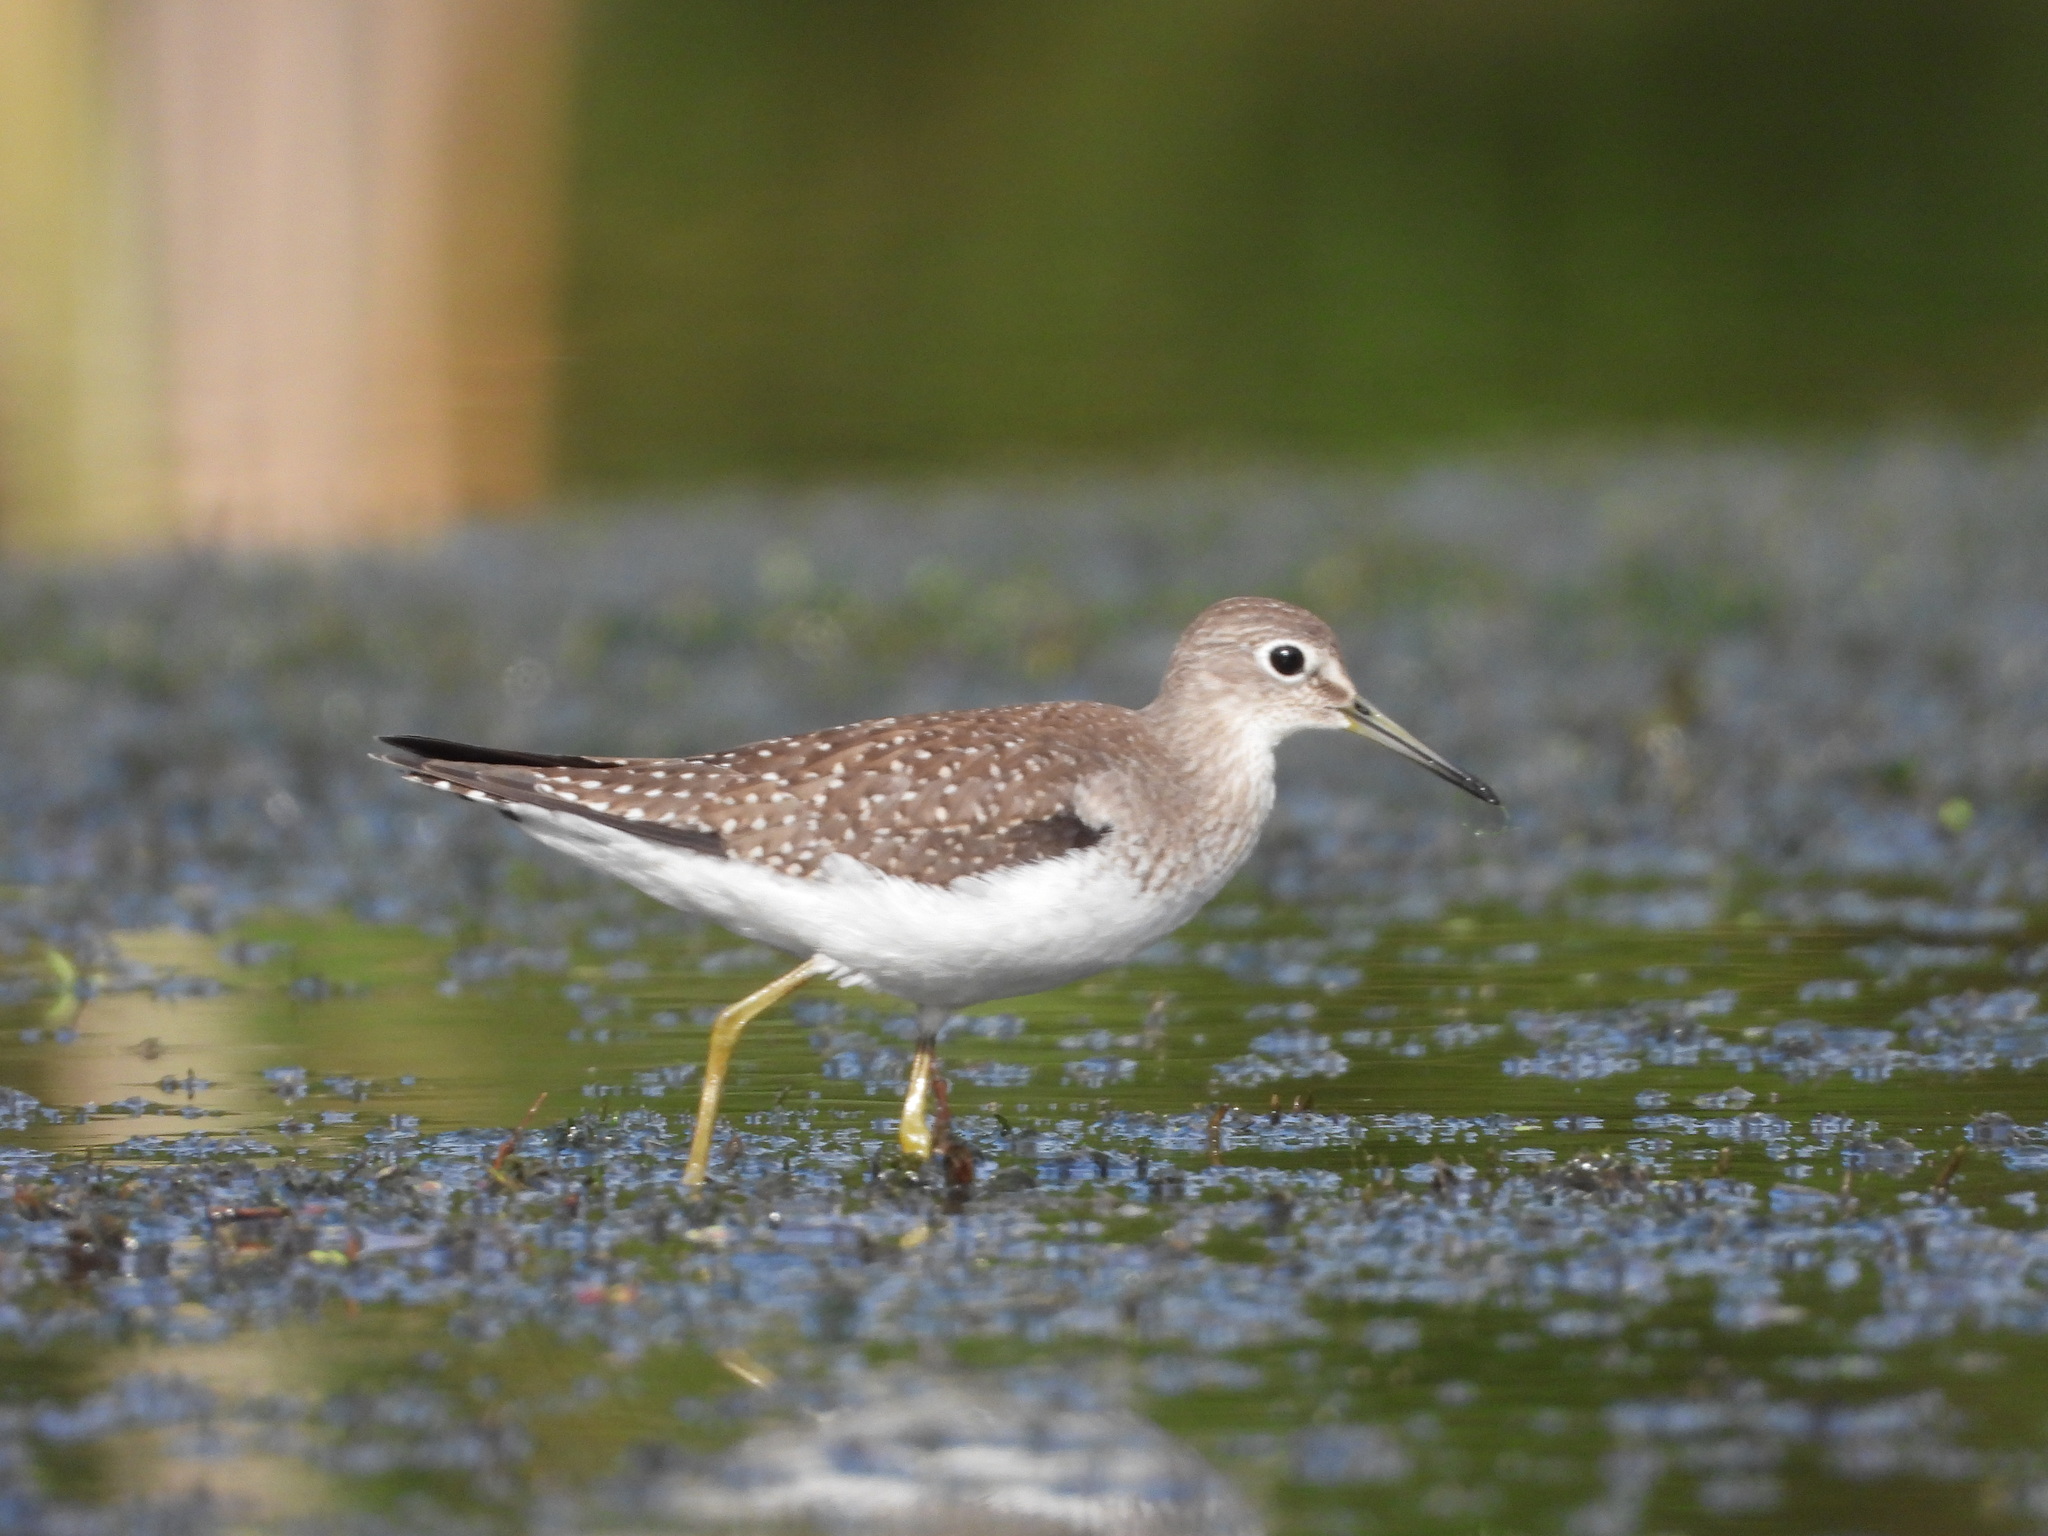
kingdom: Animalia
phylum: Chordata
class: Aves
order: Charadriiformes
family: Scolopacidae
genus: Tringa
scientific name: Tringa solitaria
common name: Solitary sandpiper
